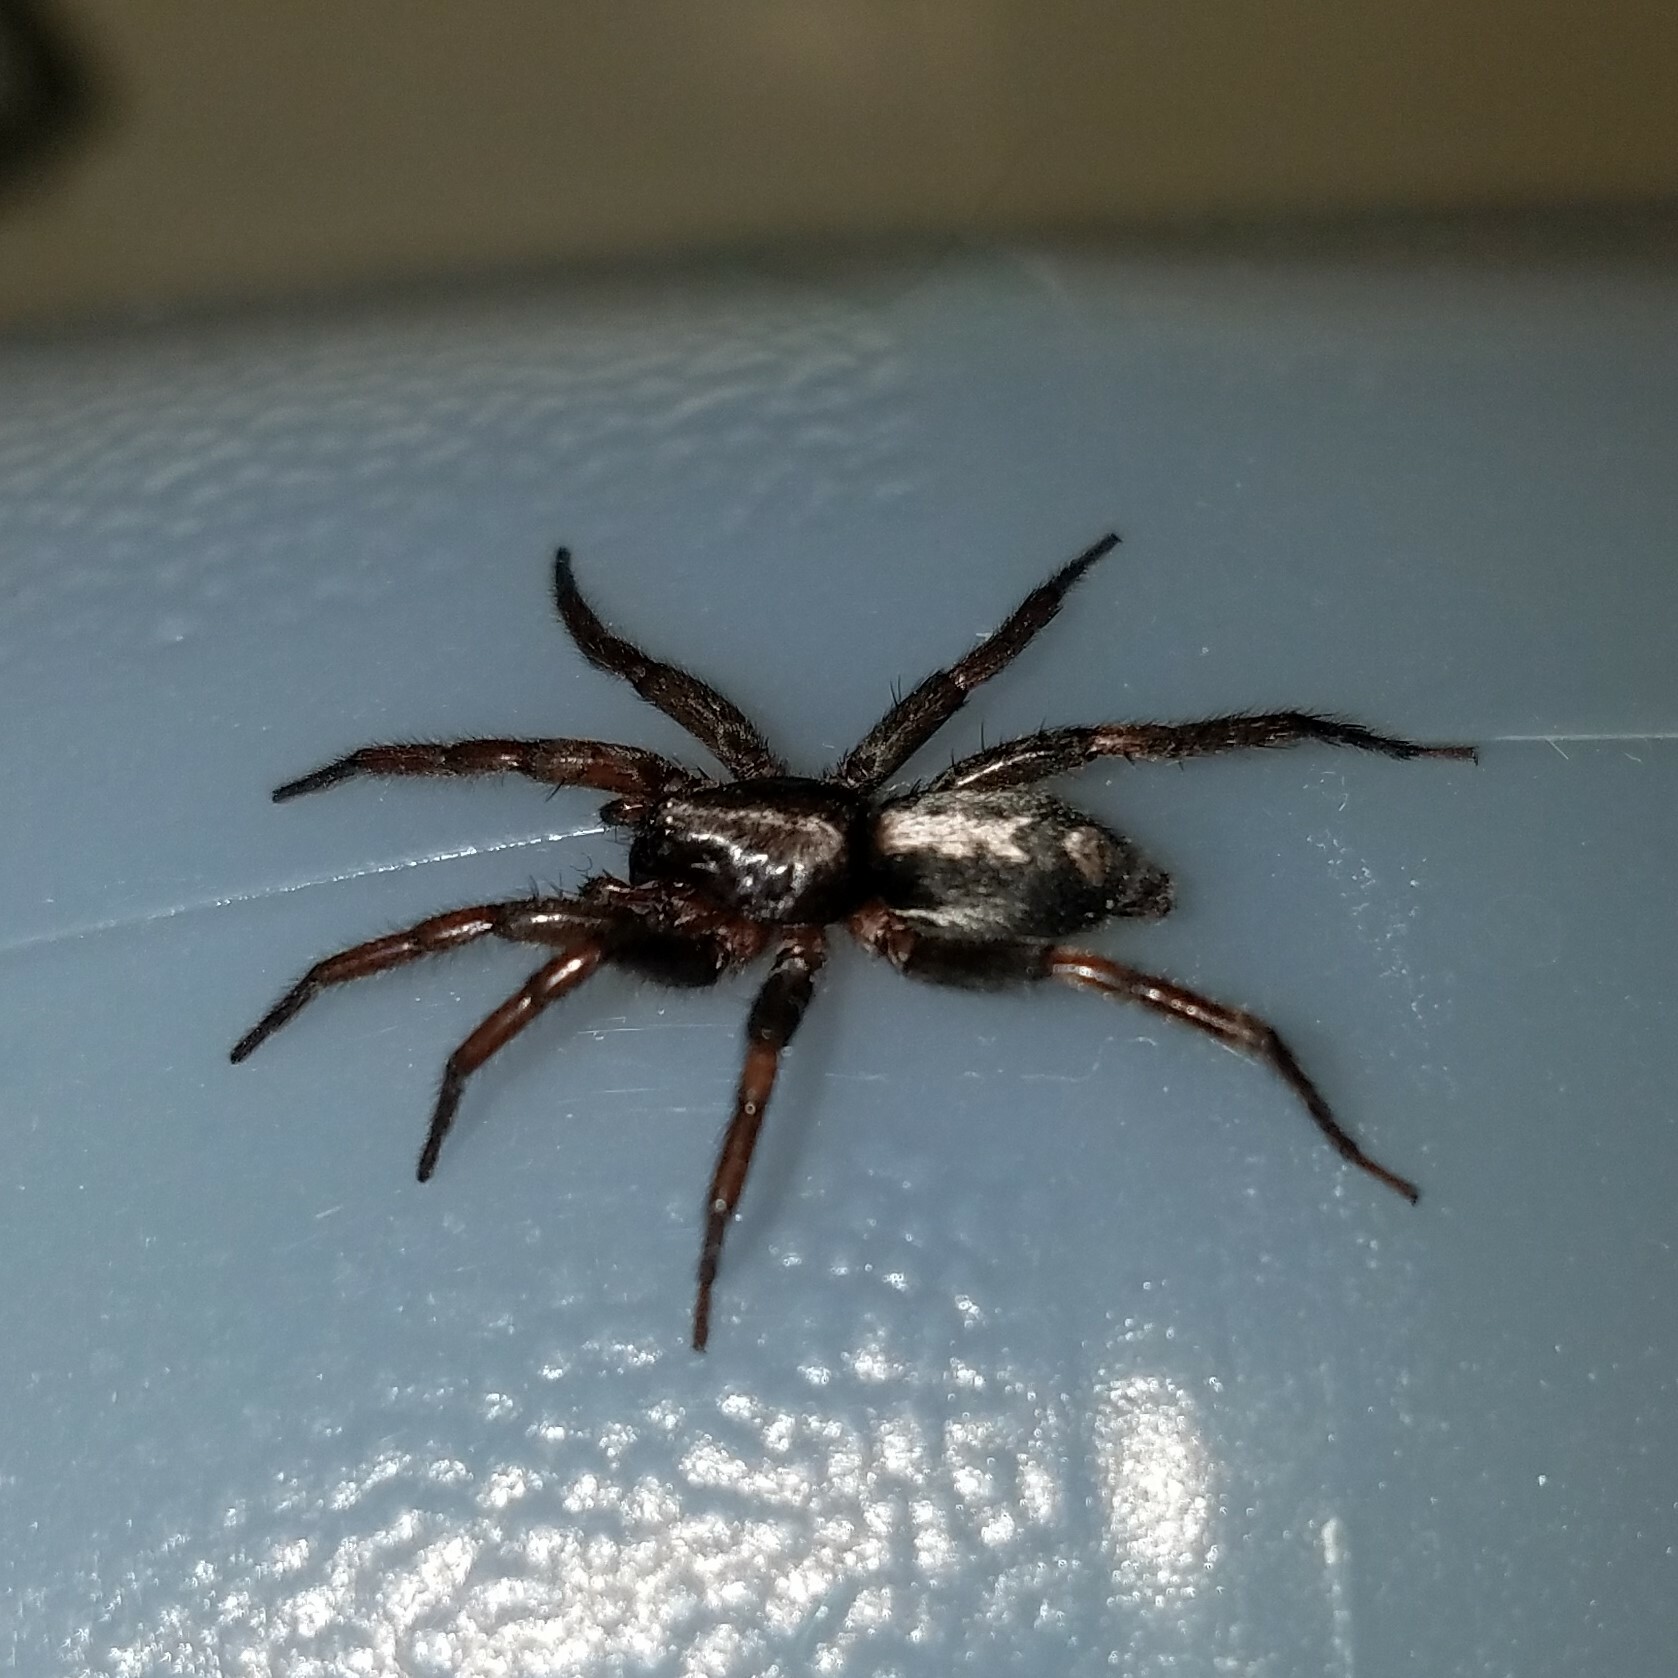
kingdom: Animalia
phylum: Arthropoda
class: Arachnida
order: Araneae
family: Gnaphosidae
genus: Herpyllus
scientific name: Herpyllus ecclesiasticus
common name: Eastern parson spider
